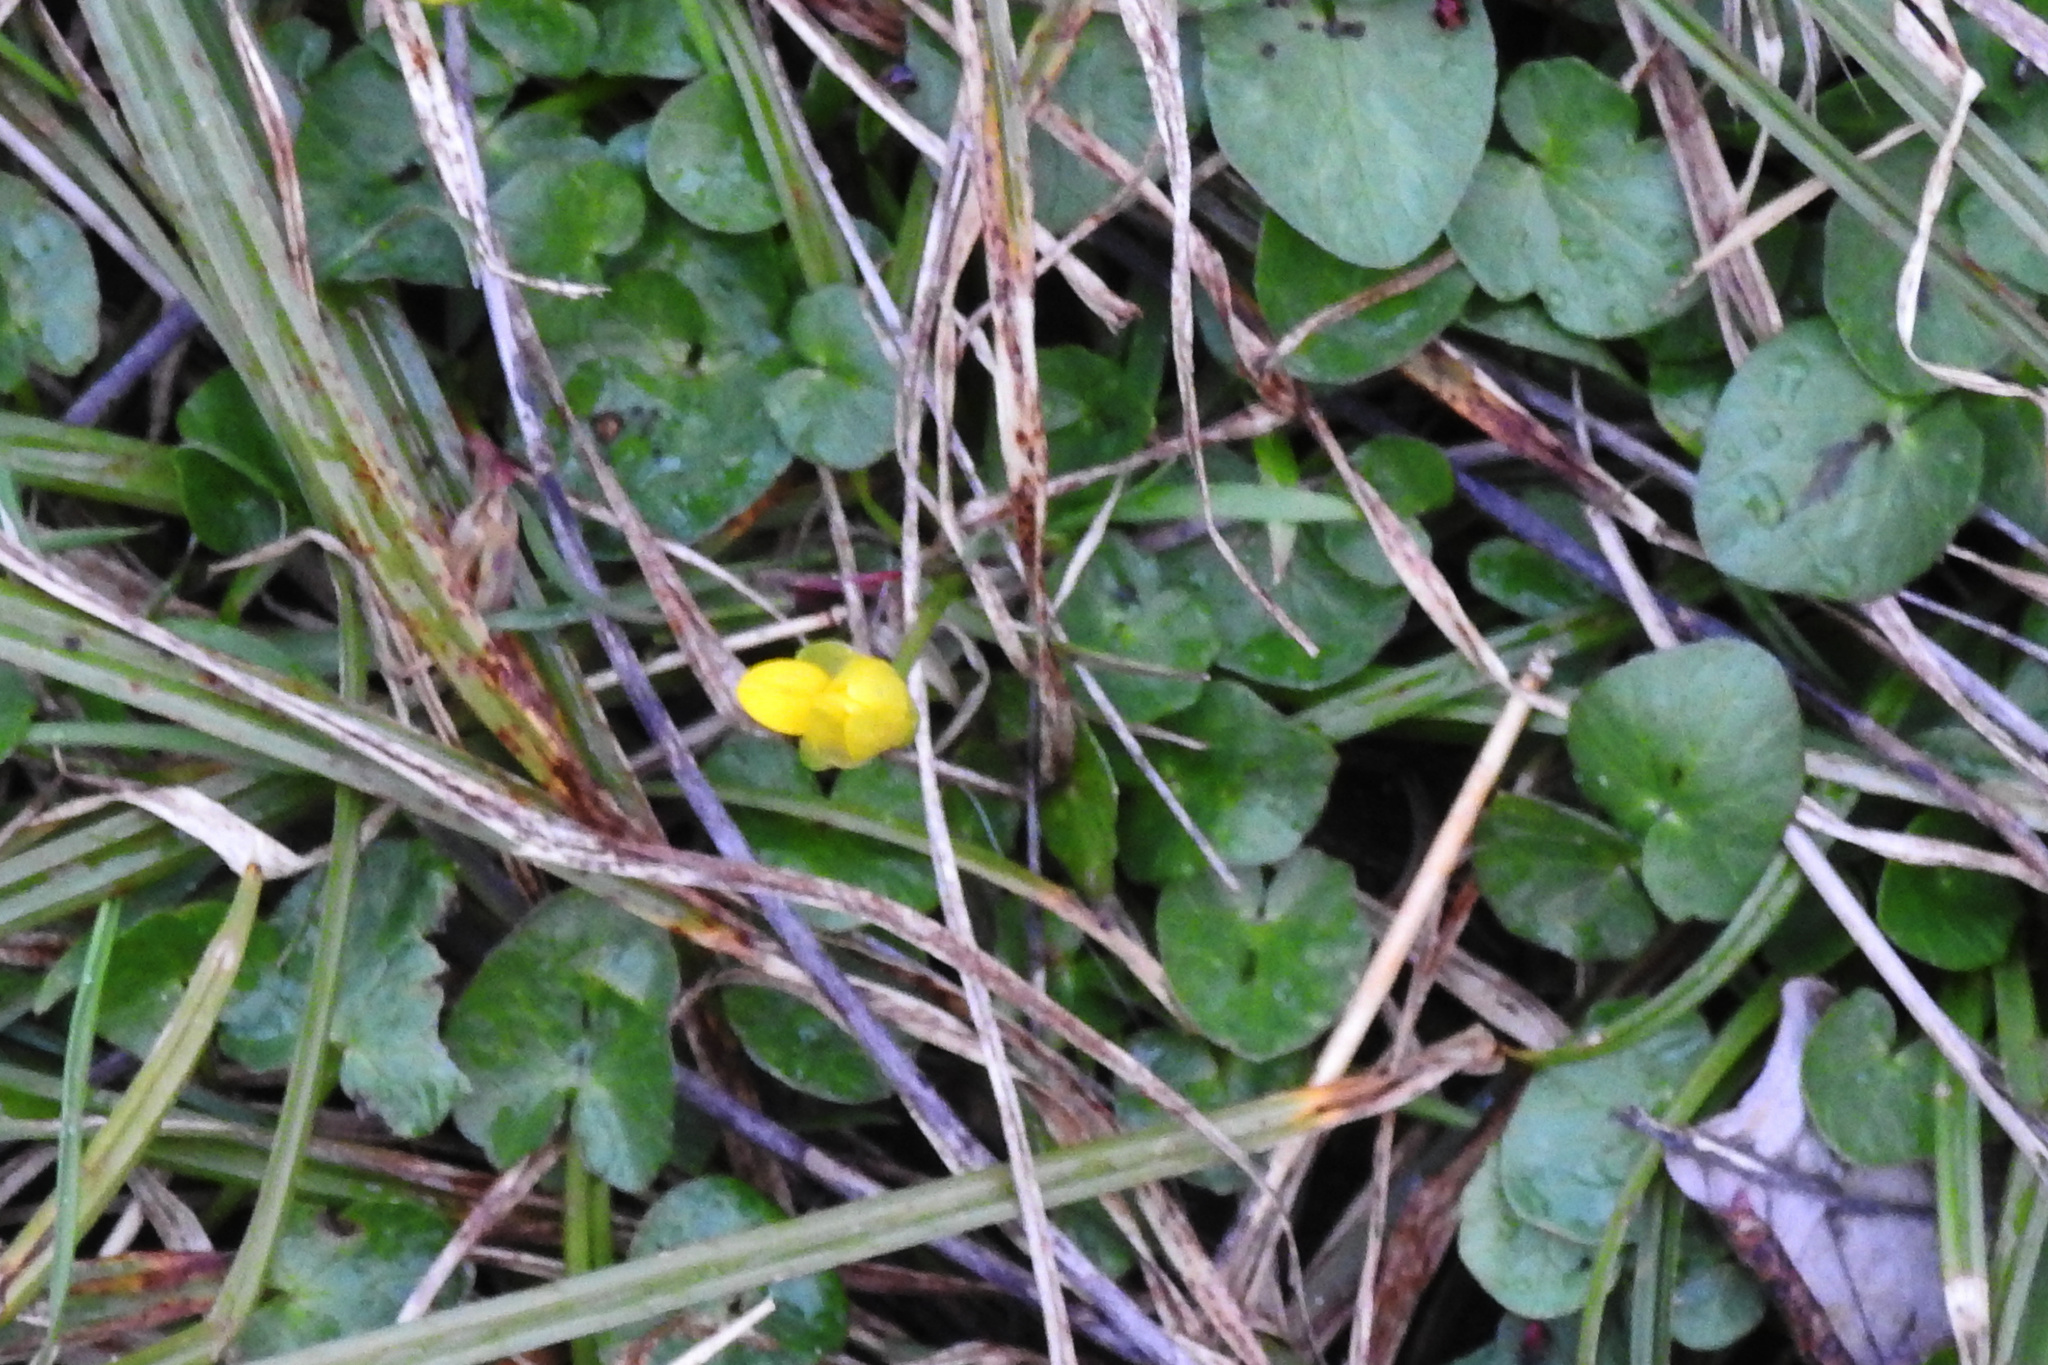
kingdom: Plantae
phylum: Tracheophyta
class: Magnoliopsida
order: Ranunculales
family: Ranunculaceae
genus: Ficaria
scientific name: Ficaria verna
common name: Lesser celandine
